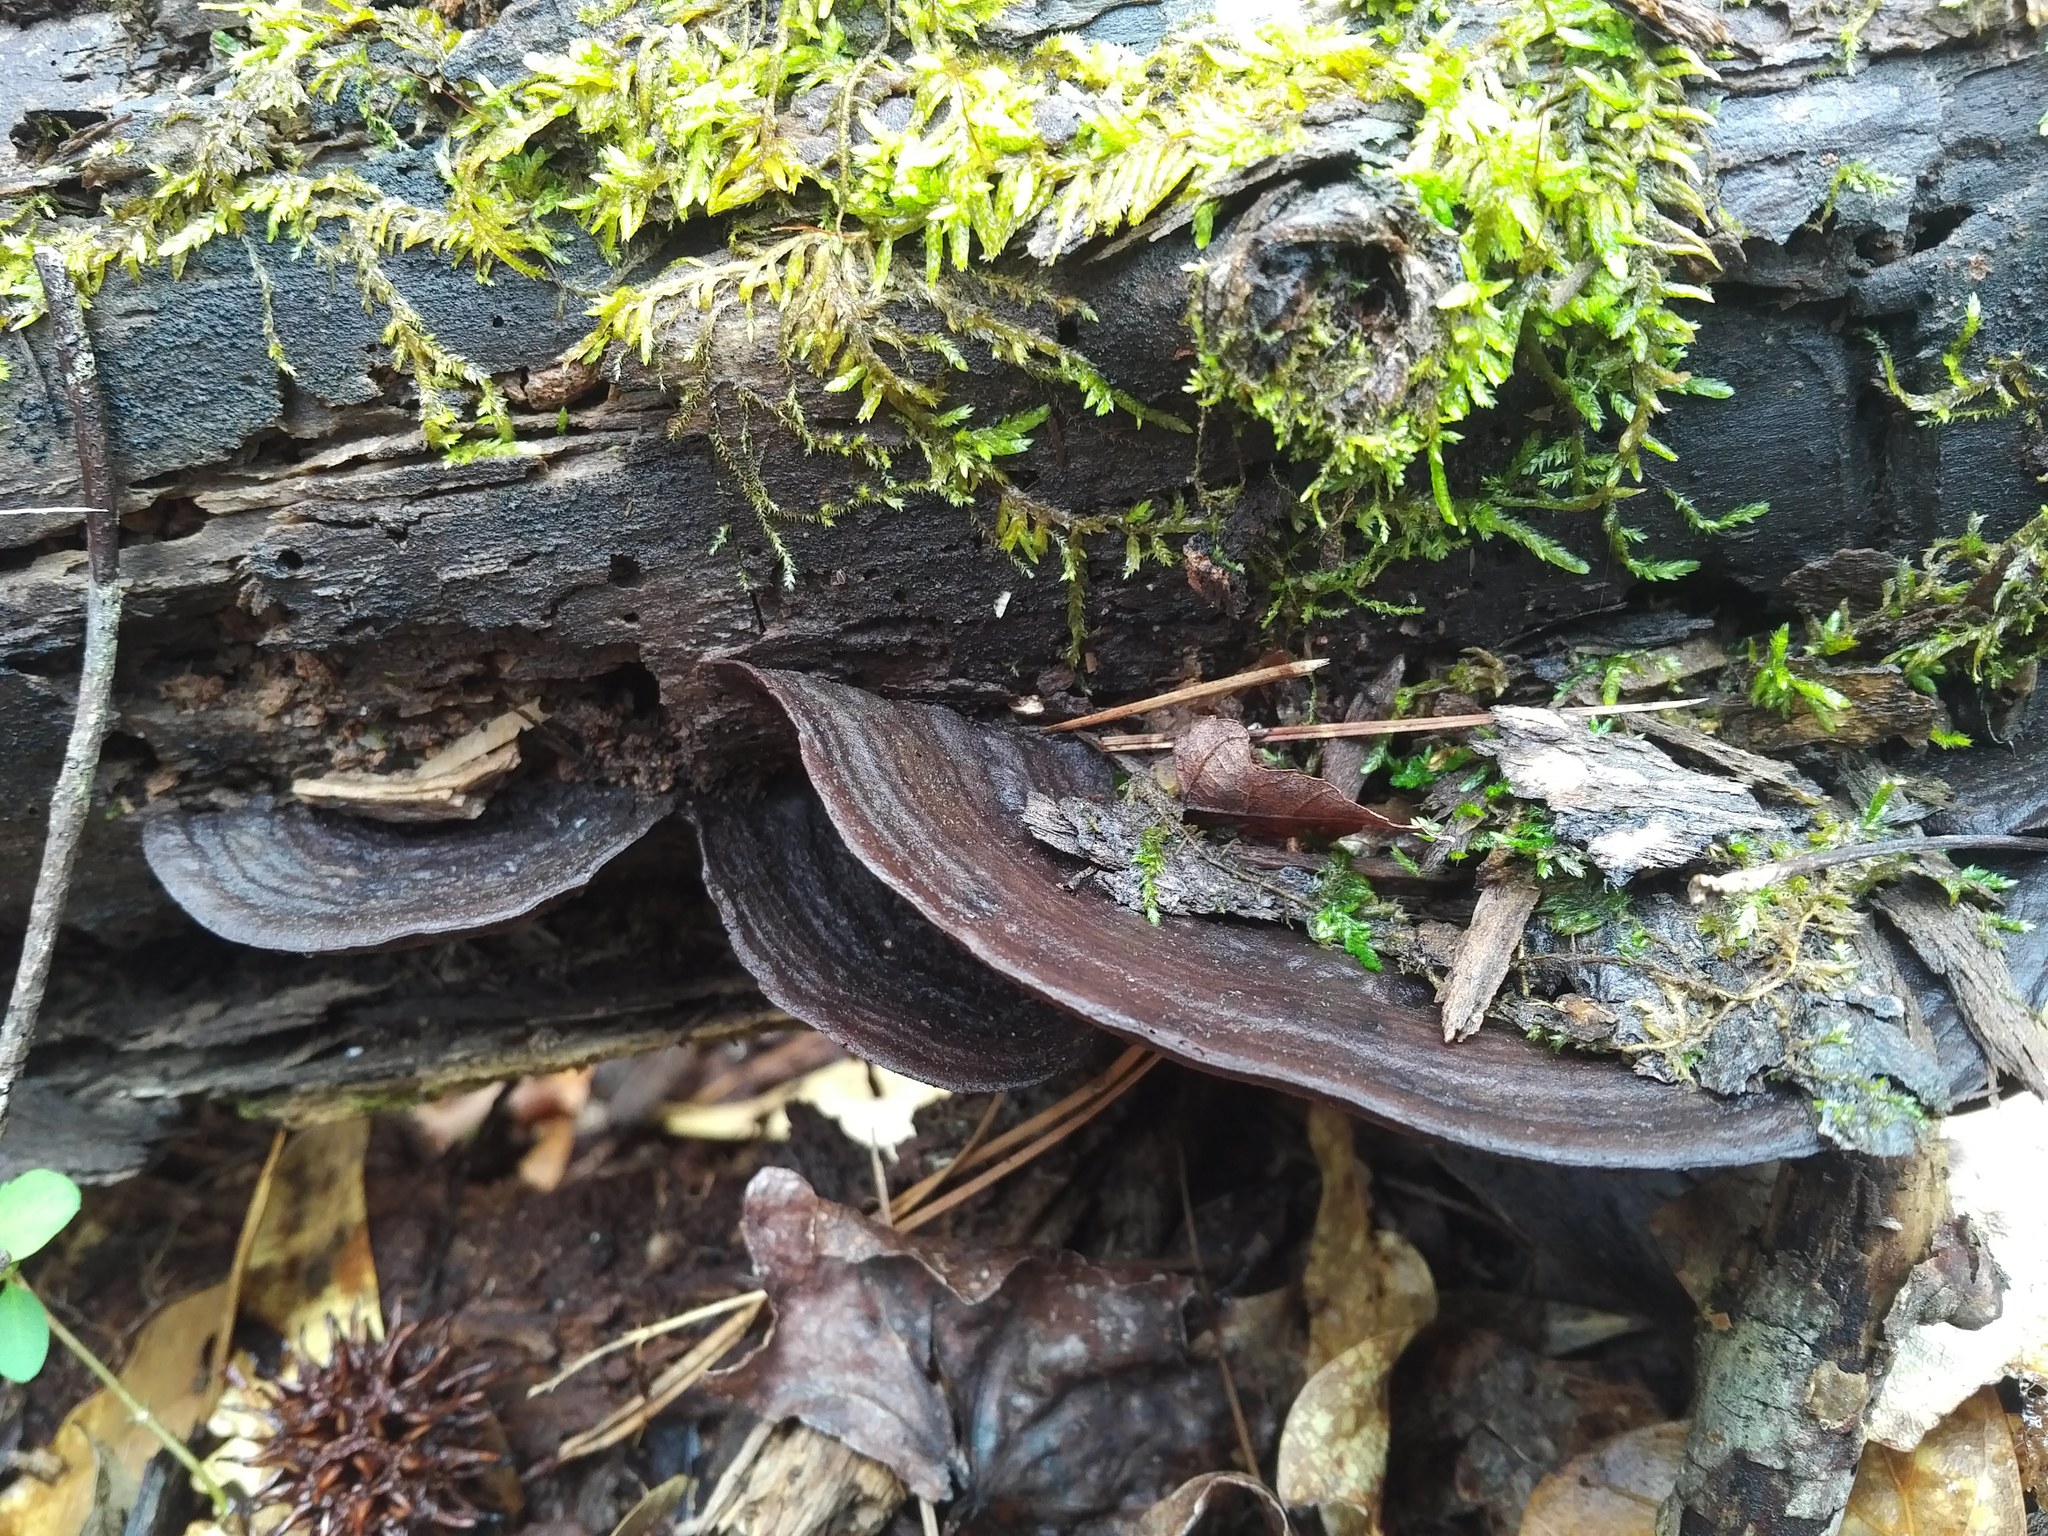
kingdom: Fungi
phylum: Basidiomycota
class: Agaricomycetes
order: Polyporales
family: Steccherinaceae
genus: Nigroporus
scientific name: Nigroporus vinosus
